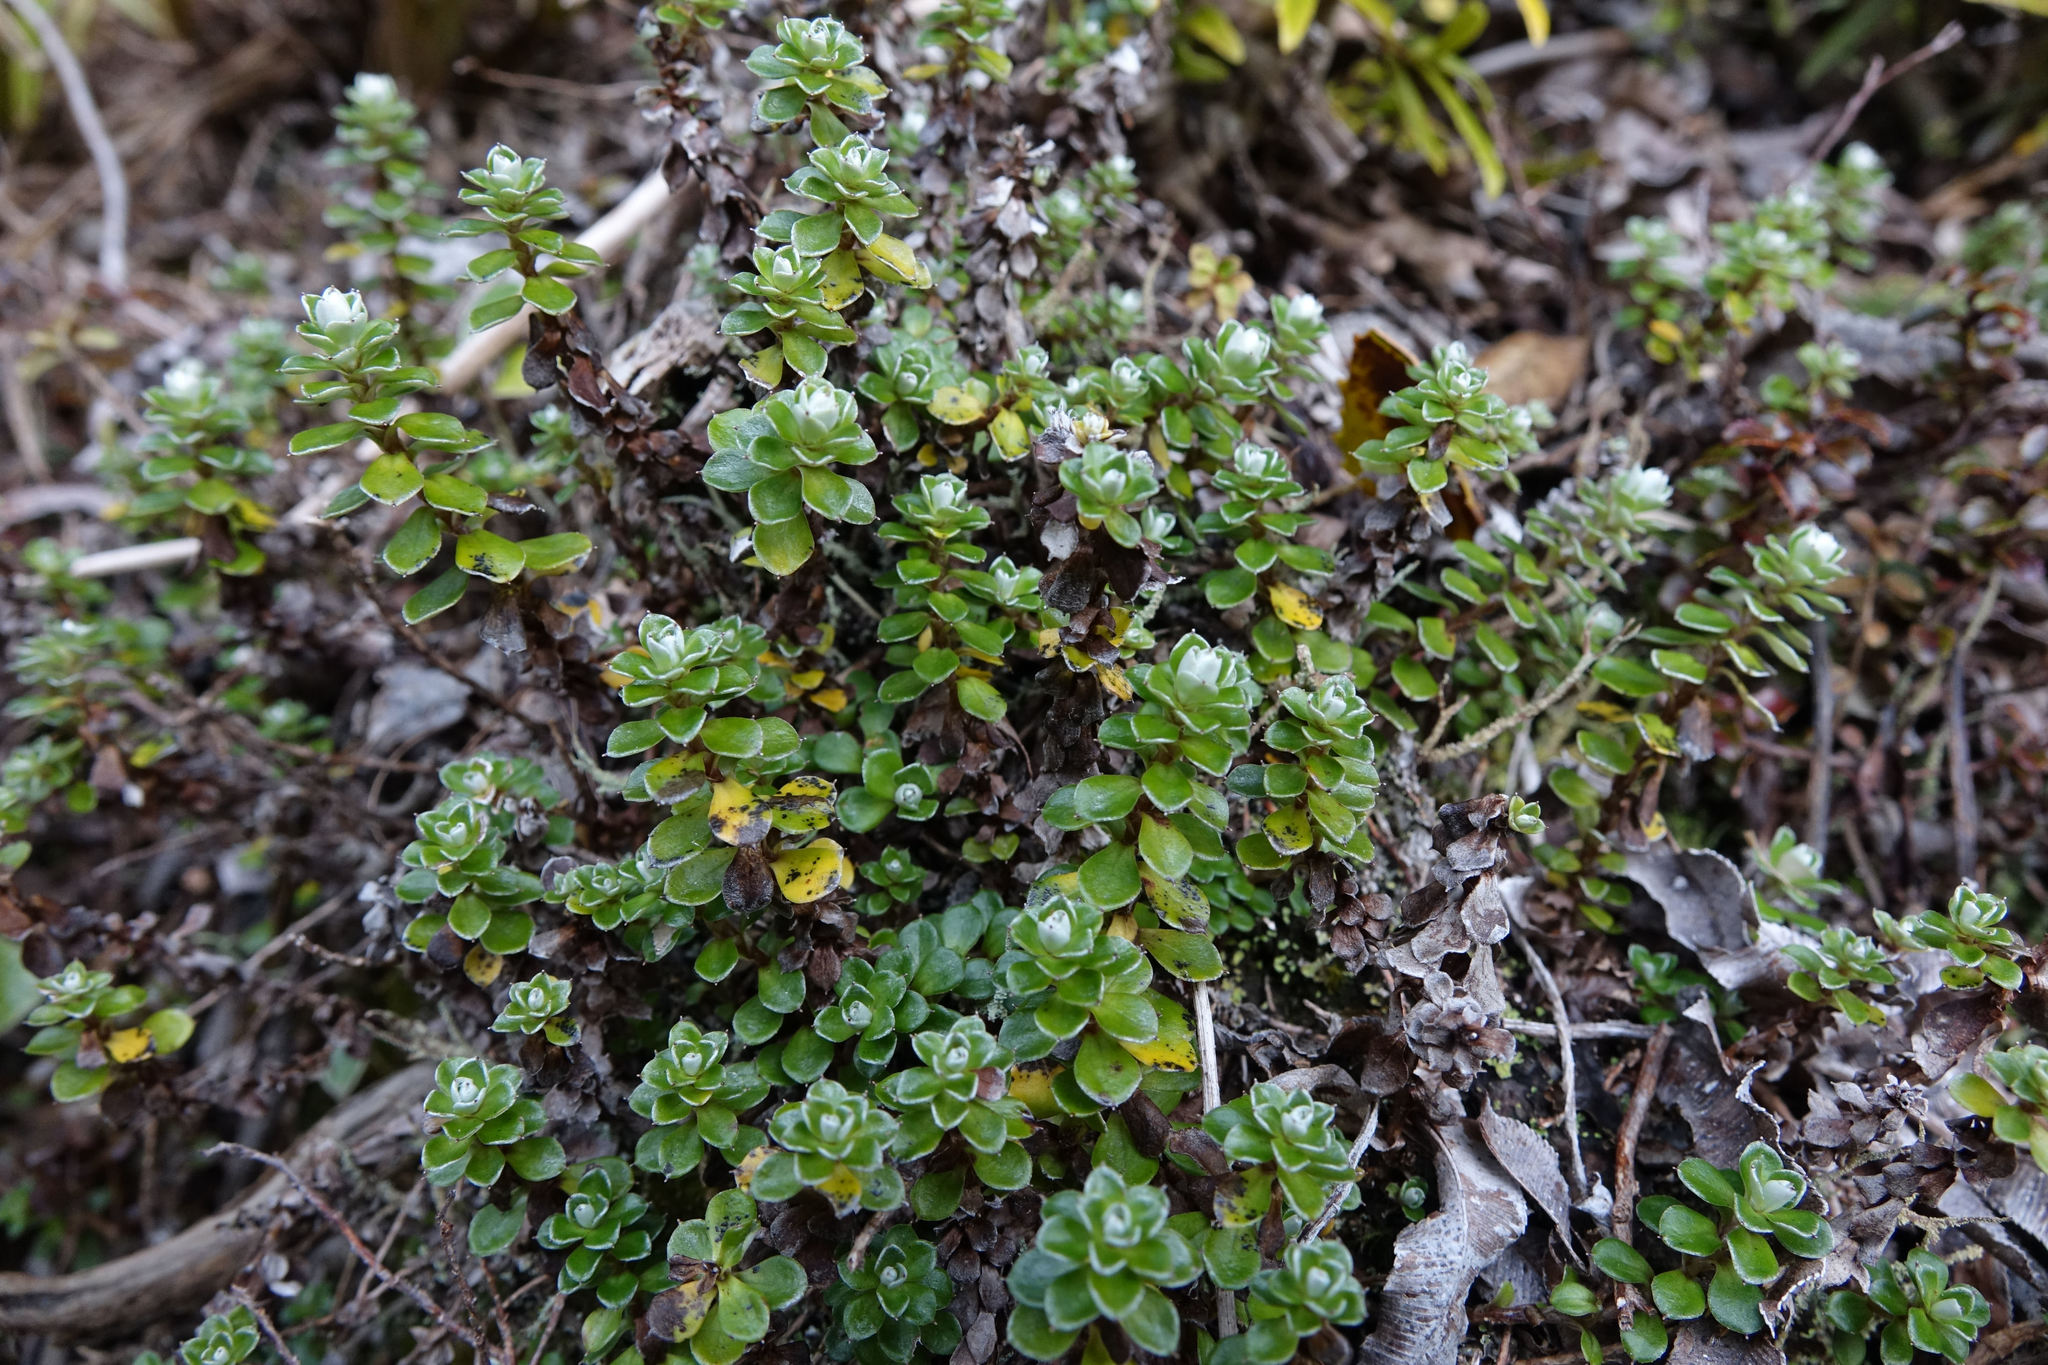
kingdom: Plantae
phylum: Tracheophyta
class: Magnoliopsida
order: Asterales
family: Asteraceae
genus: Anaphalioides
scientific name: Anaphalioides alpina
